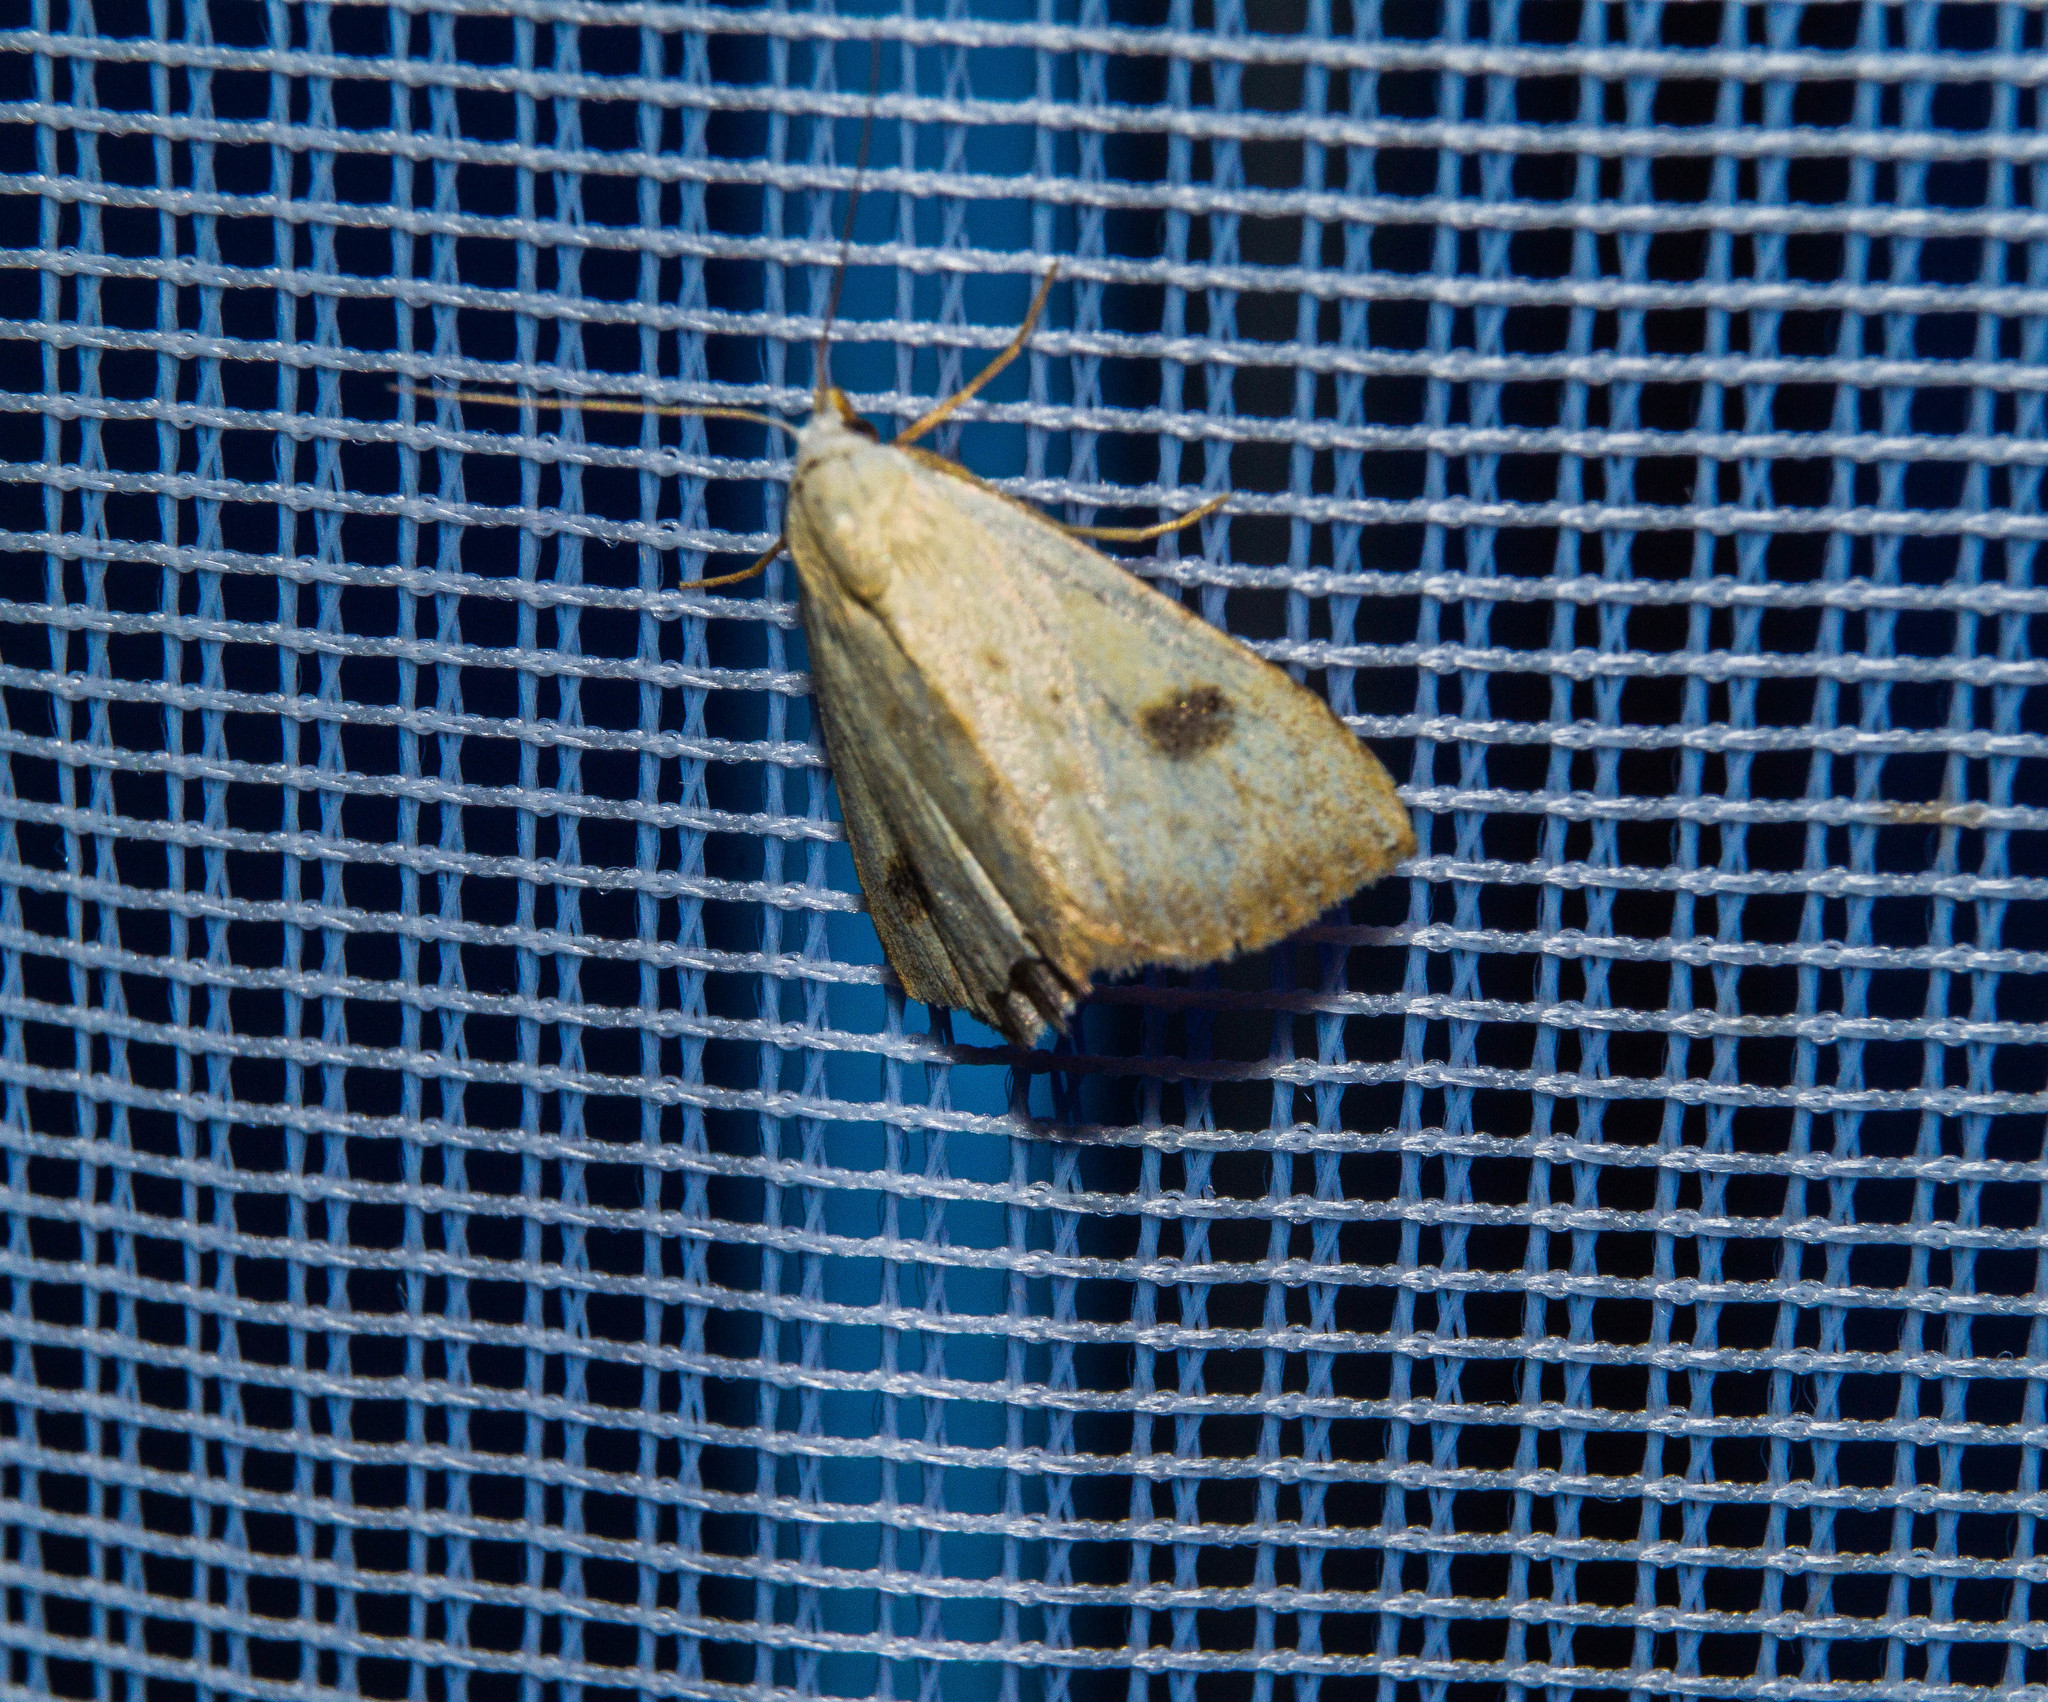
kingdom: Animalia
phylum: Arthropoda
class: Insecta
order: Lepidoptera
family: Erebidae
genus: Rivula
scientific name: Rivula sericealis
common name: Straw dot
